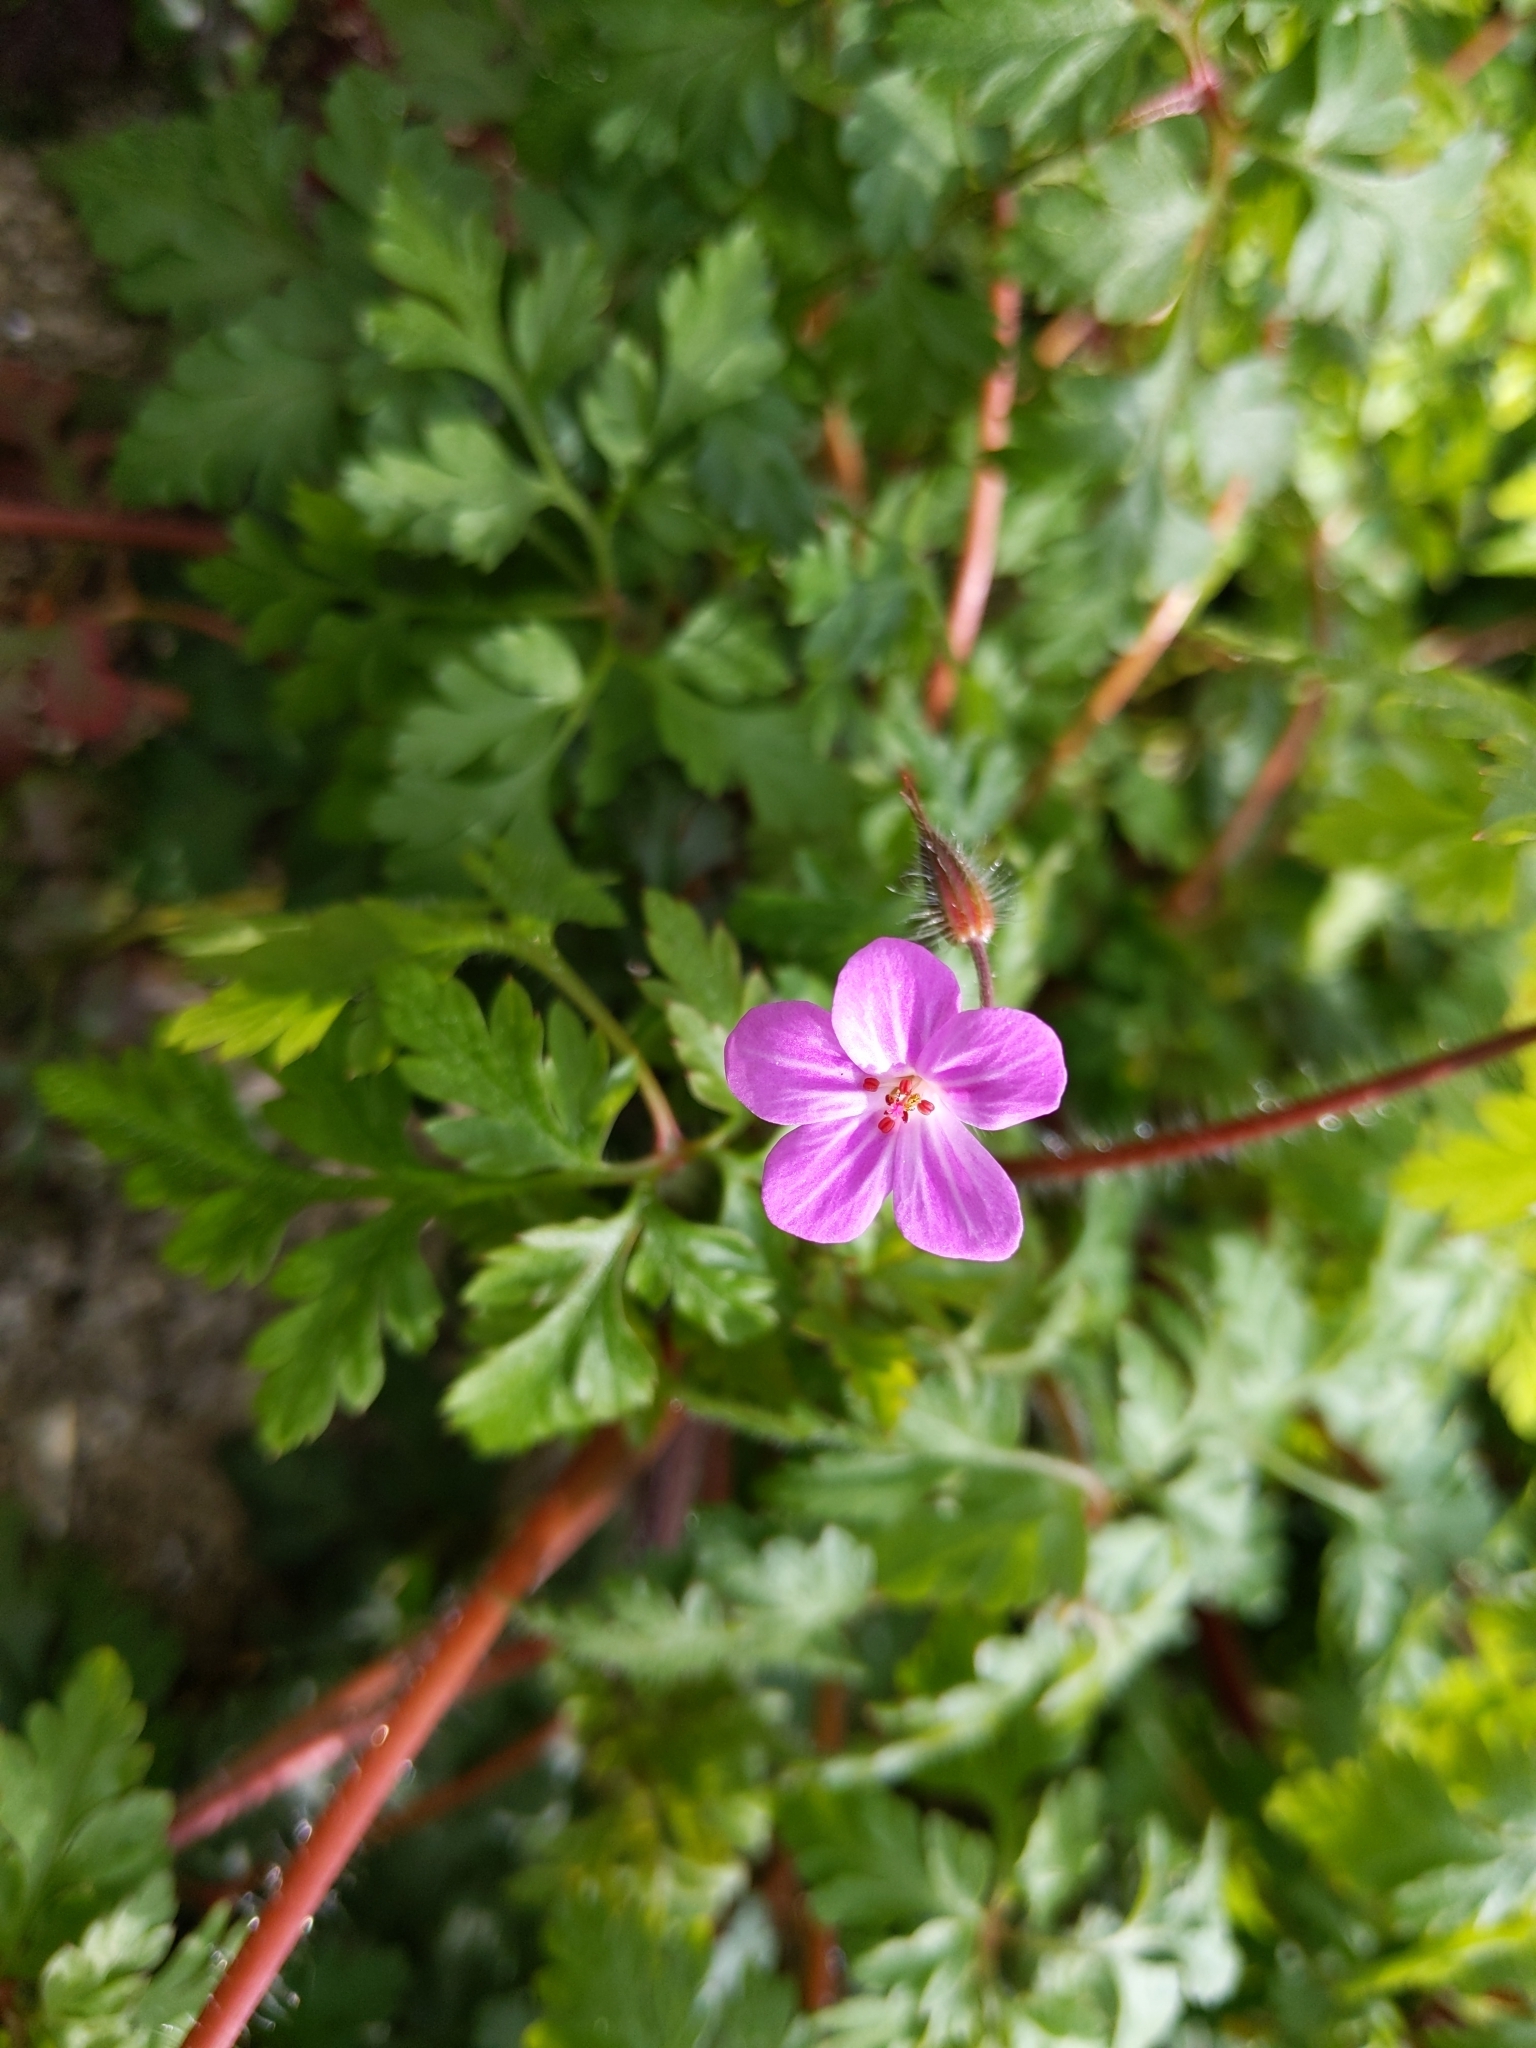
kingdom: Plantae
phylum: Tracheophyta
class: Magnoliopsida
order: Geraniales
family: Geraniaceae
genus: Geranium
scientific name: Geranium robertianum
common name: Herb-robert
